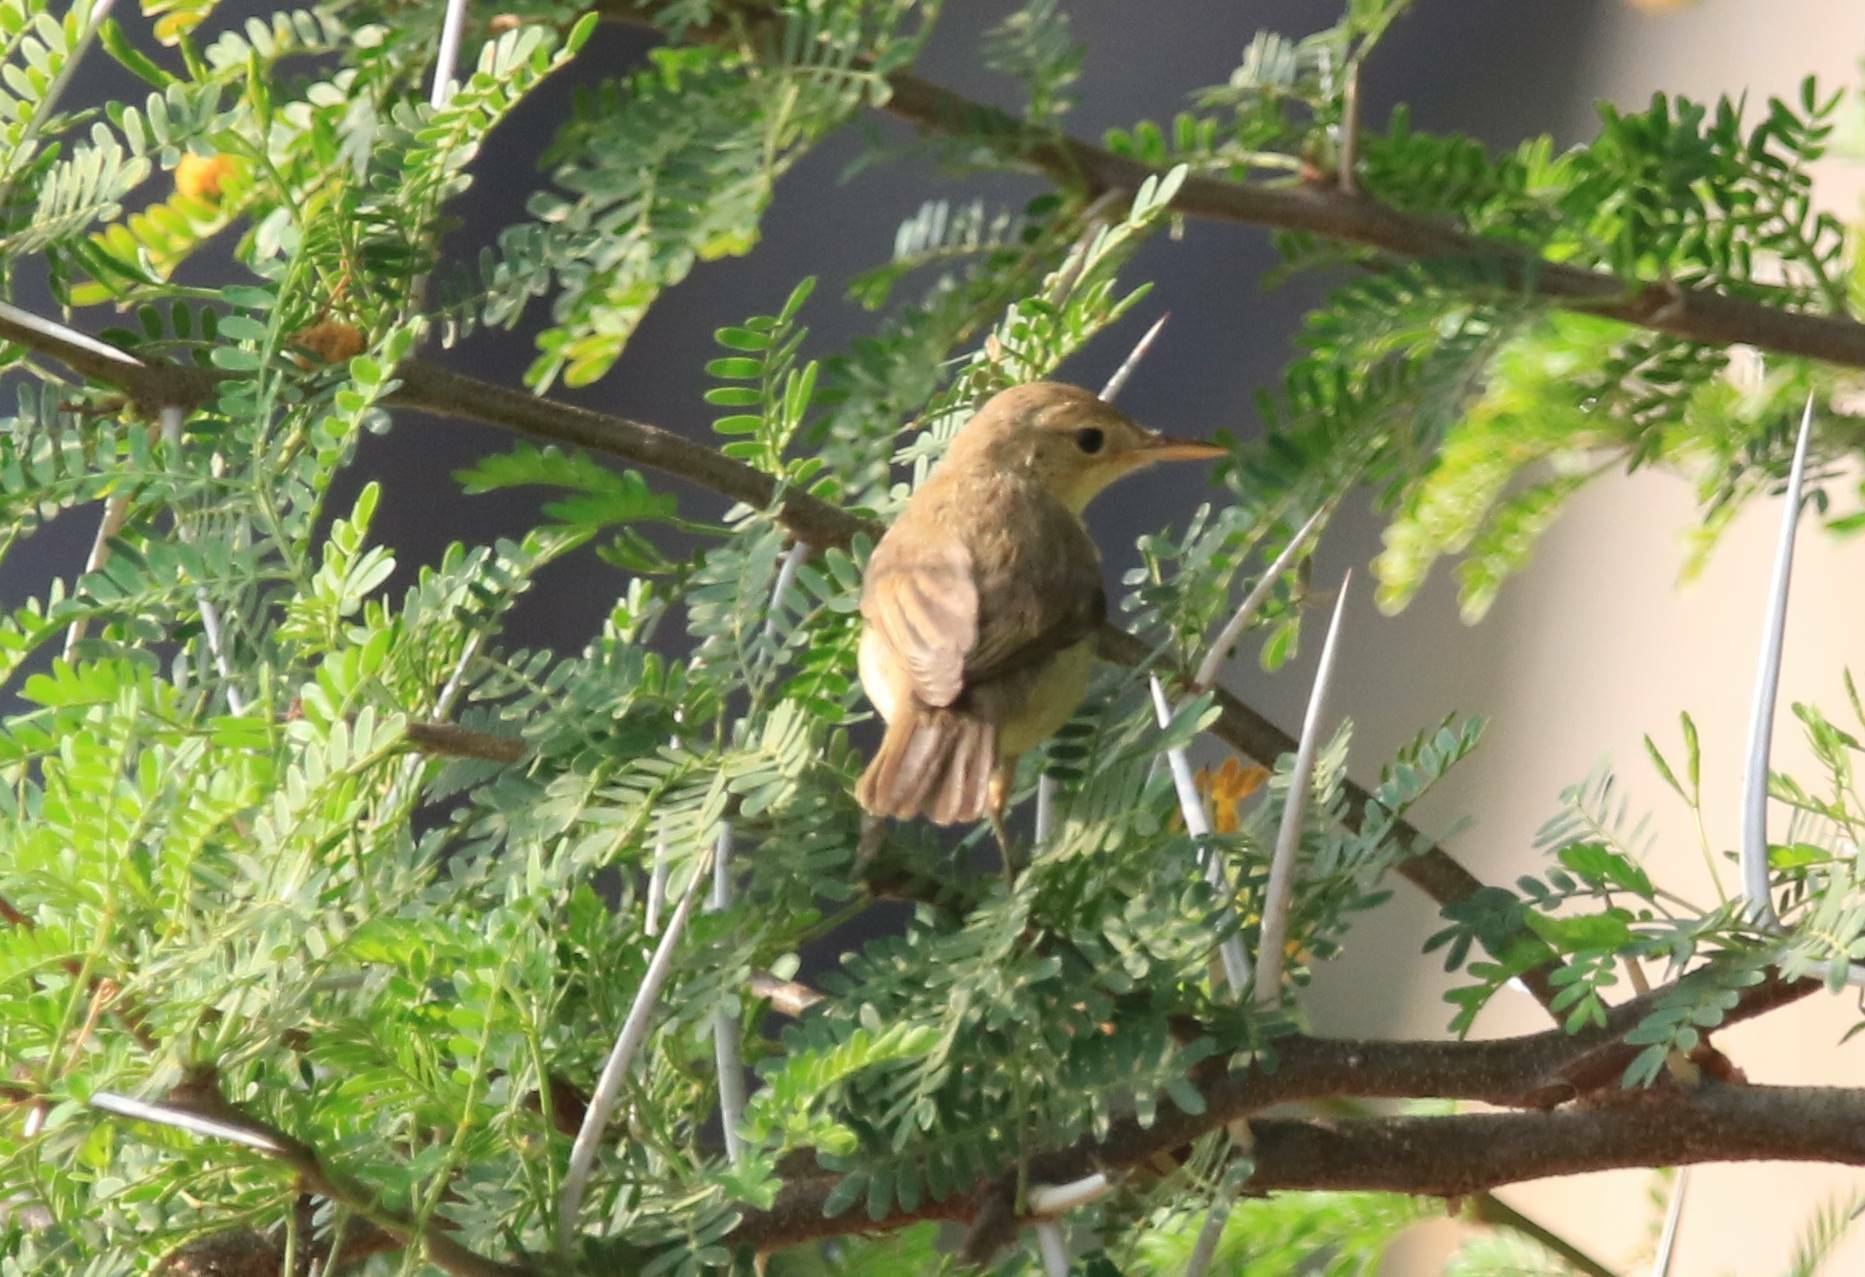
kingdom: Animalia
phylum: Chordata
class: Aves
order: Passeriformes
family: Acrocephalidae
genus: Acrocephalus
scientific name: Acrocephalus scirpaceus
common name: Eurasian reed warbler
